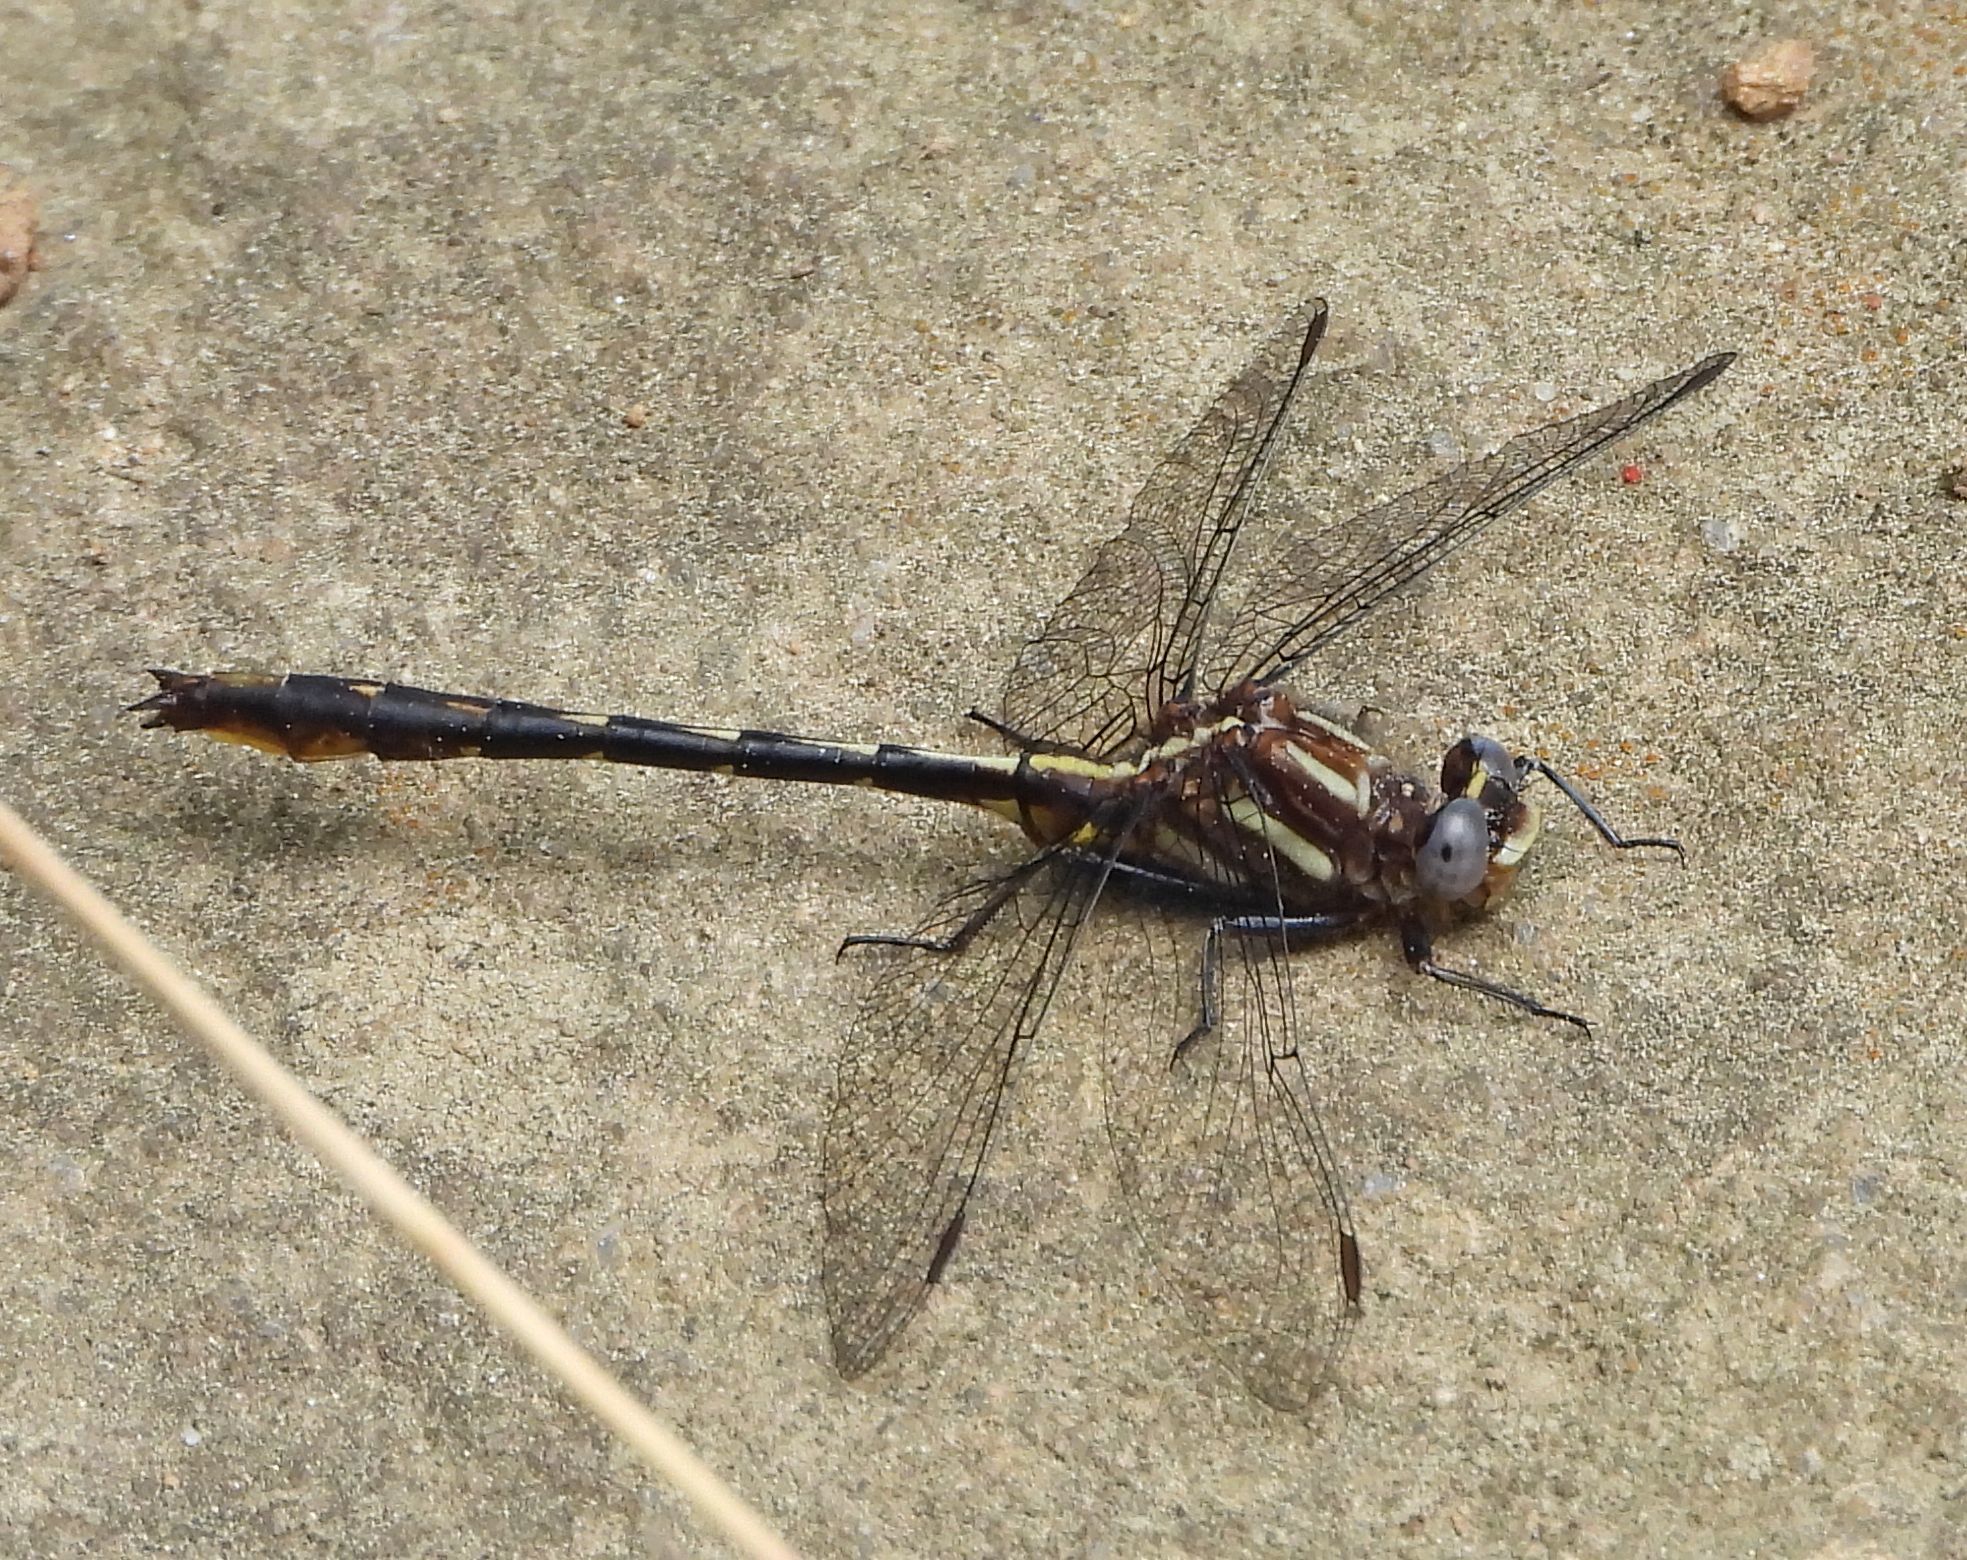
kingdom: Animalia
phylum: Arthropoda
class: Insecta
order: Odonata
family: Gomphidae
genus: Phanogomphus
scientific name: Phanogomphus exilis
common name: Lancet clubtail
